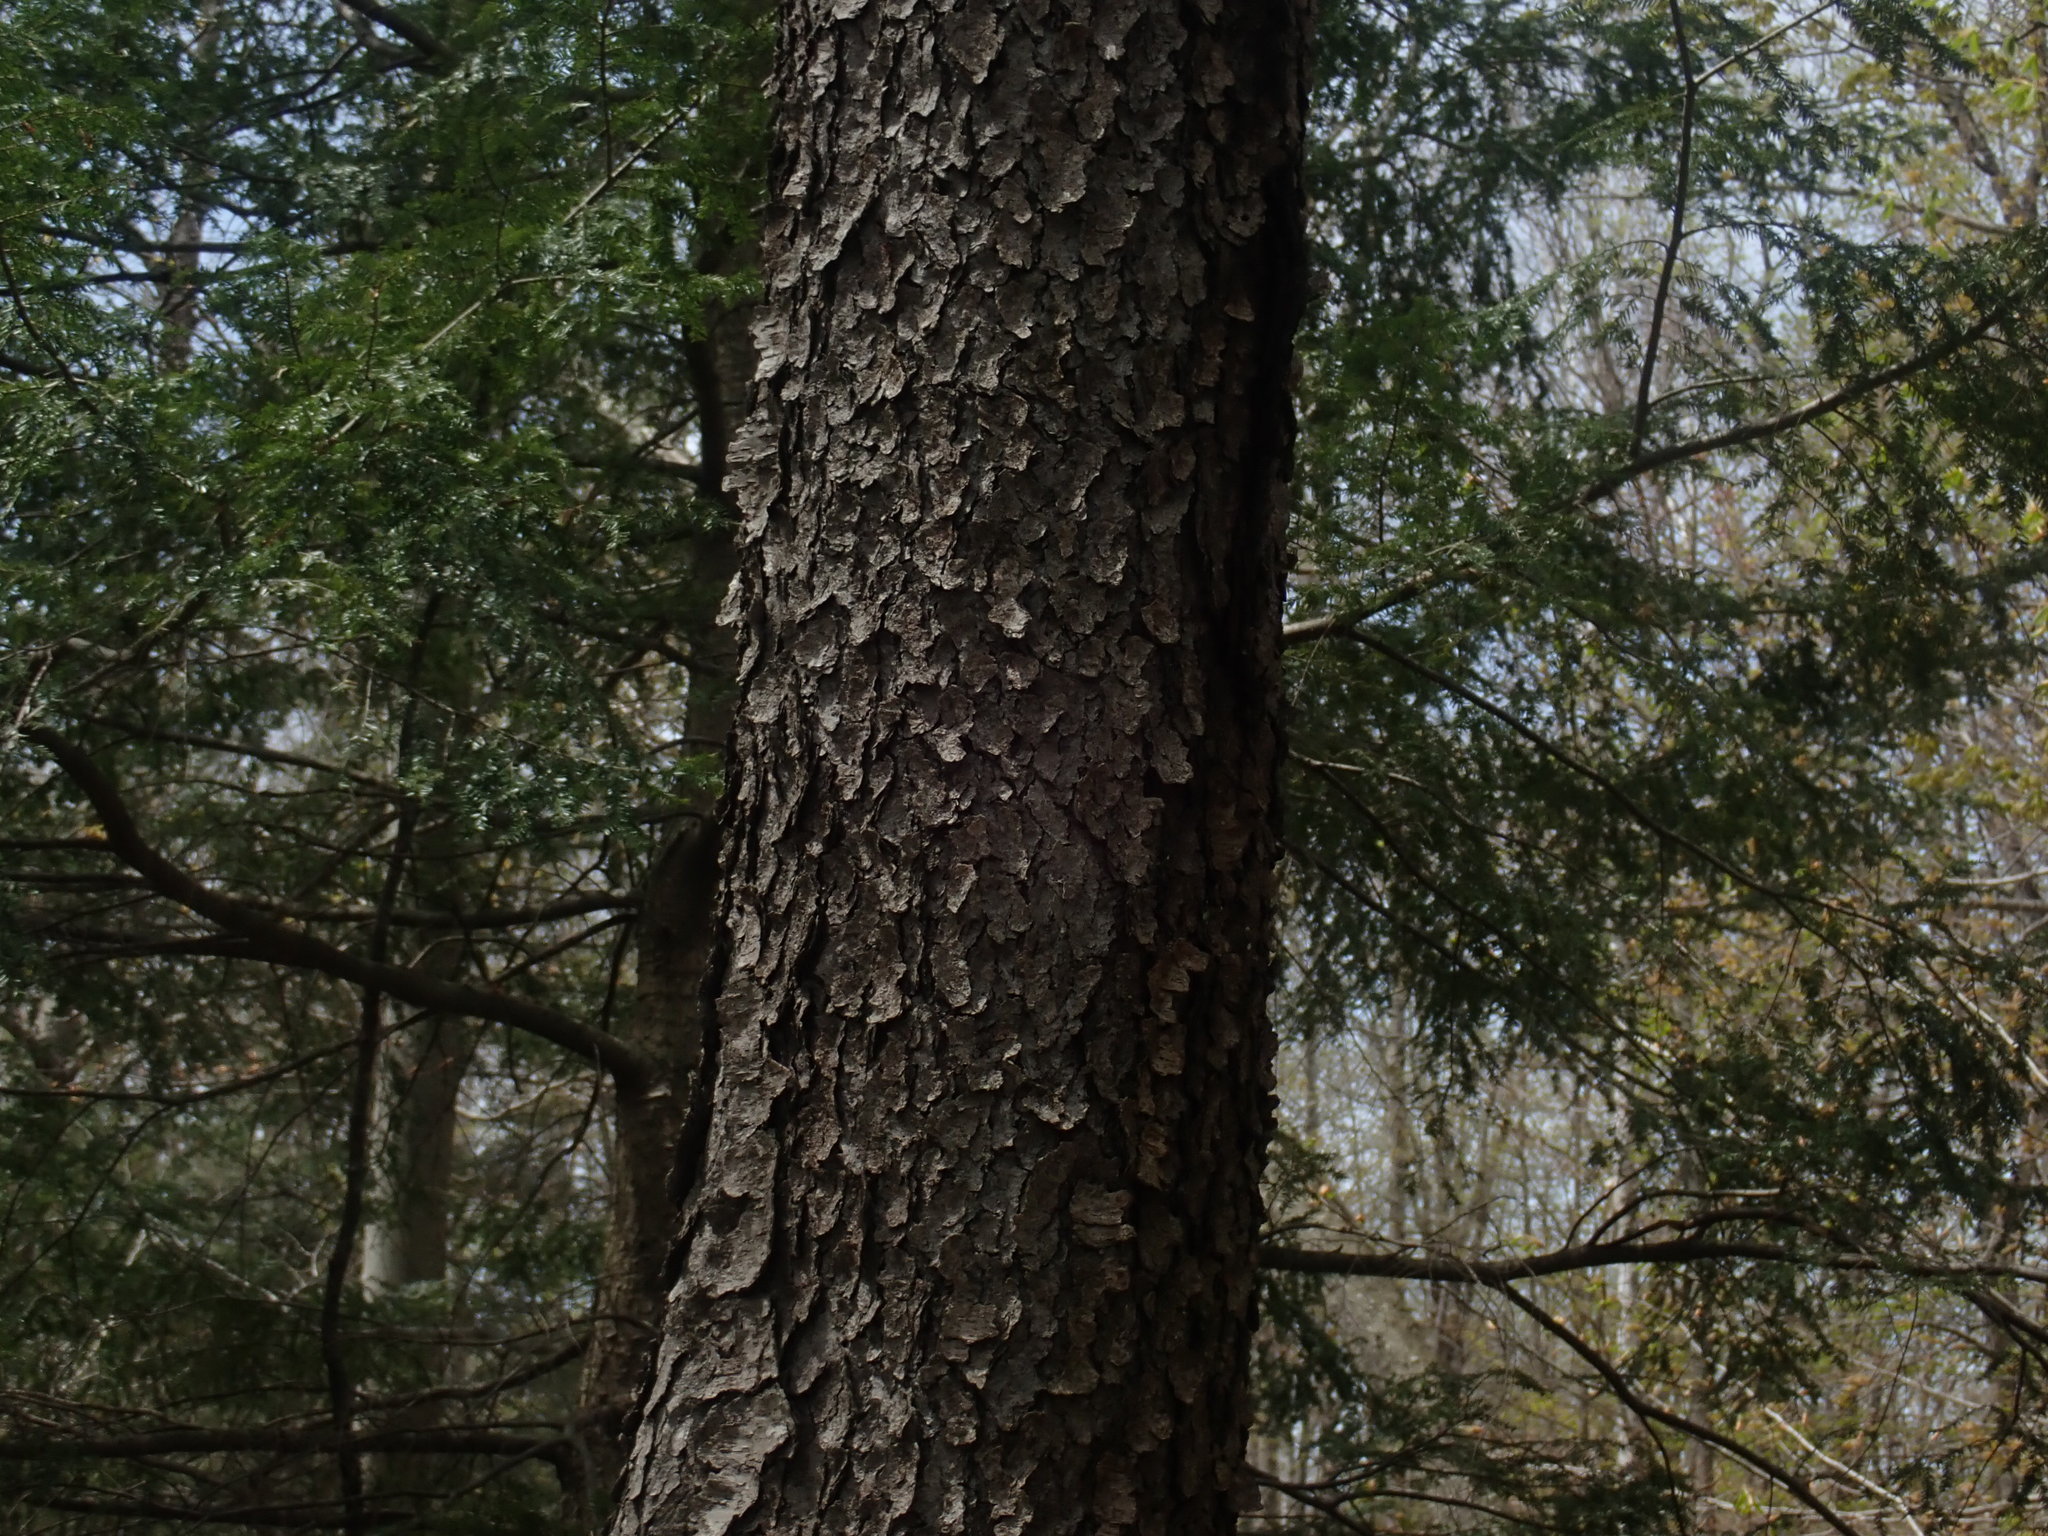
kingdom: Plantae
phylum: Tracheophyta
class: Magnoliopsida
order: Rosales
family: Rosaceae
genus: Prunus
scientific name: Prunus serotina
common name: Black cherry
